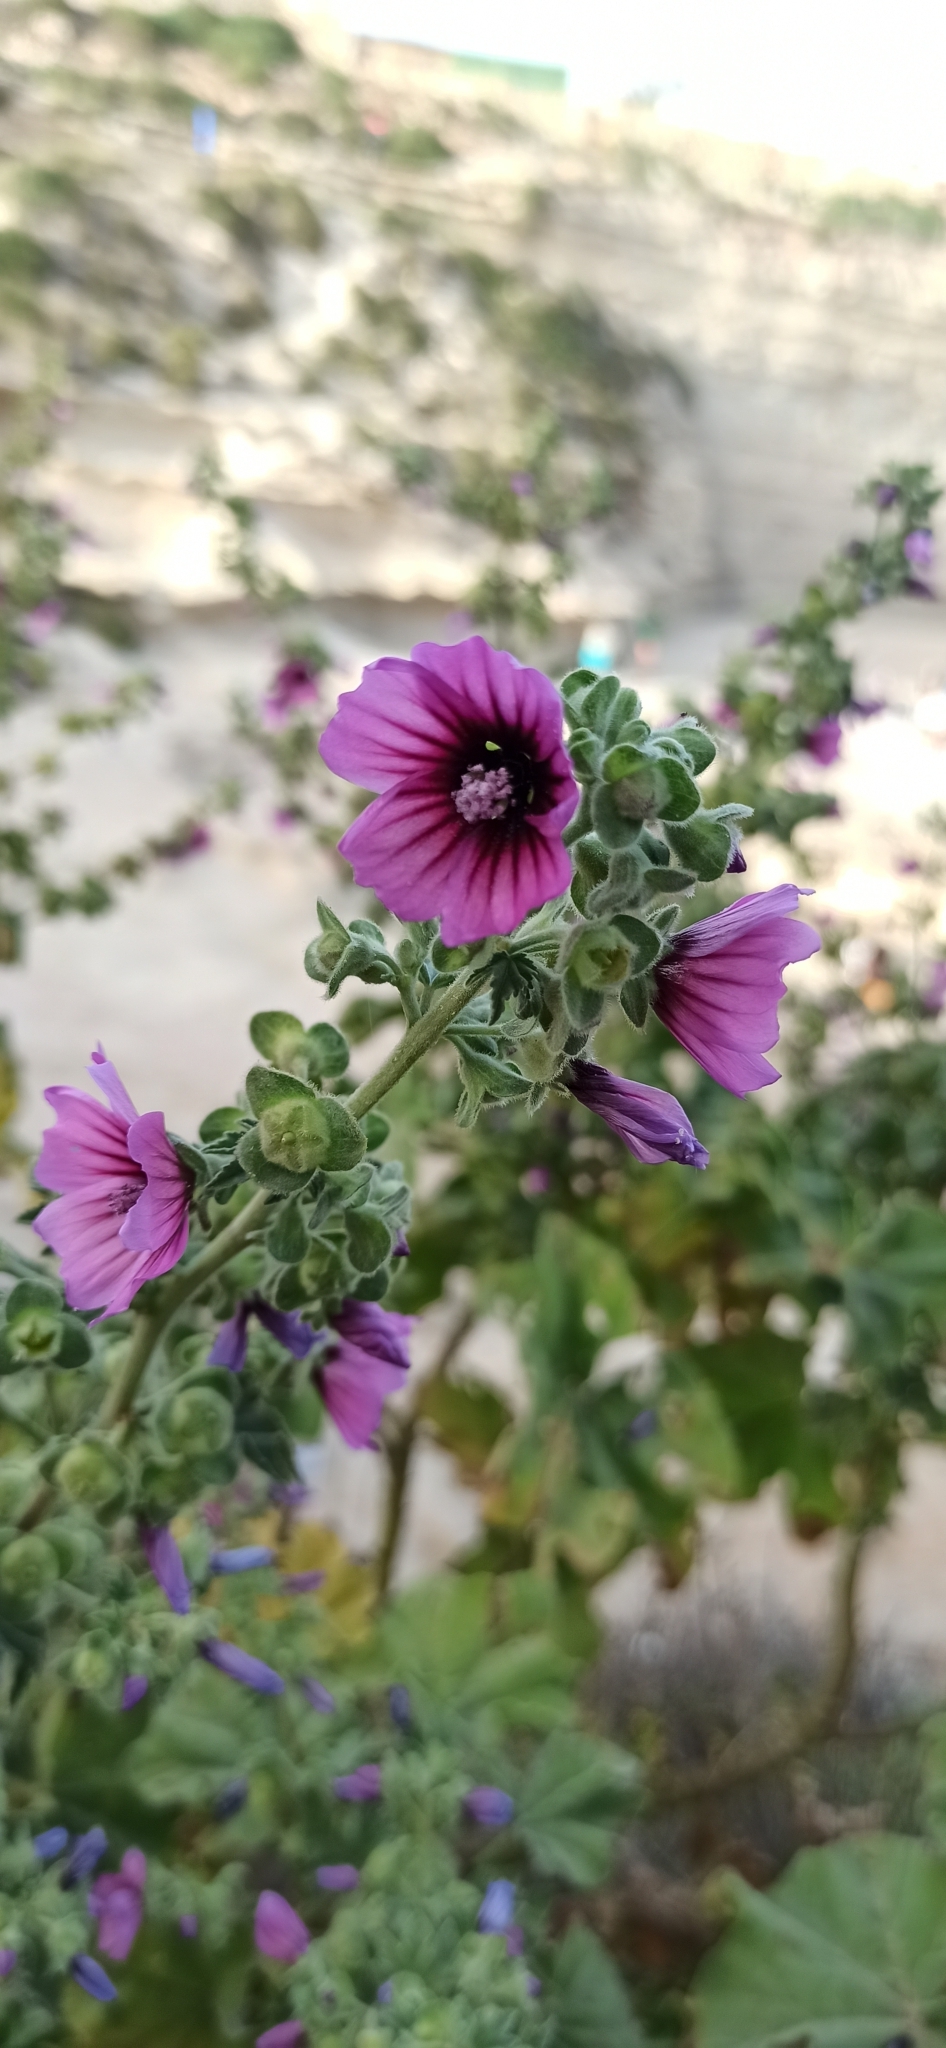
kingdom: Plantae
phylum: Tracheophyta
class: Magnoliopsida
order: Malvales
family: Malvaceae
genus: Malva
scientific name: Malva arborea
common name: Tree mallow
